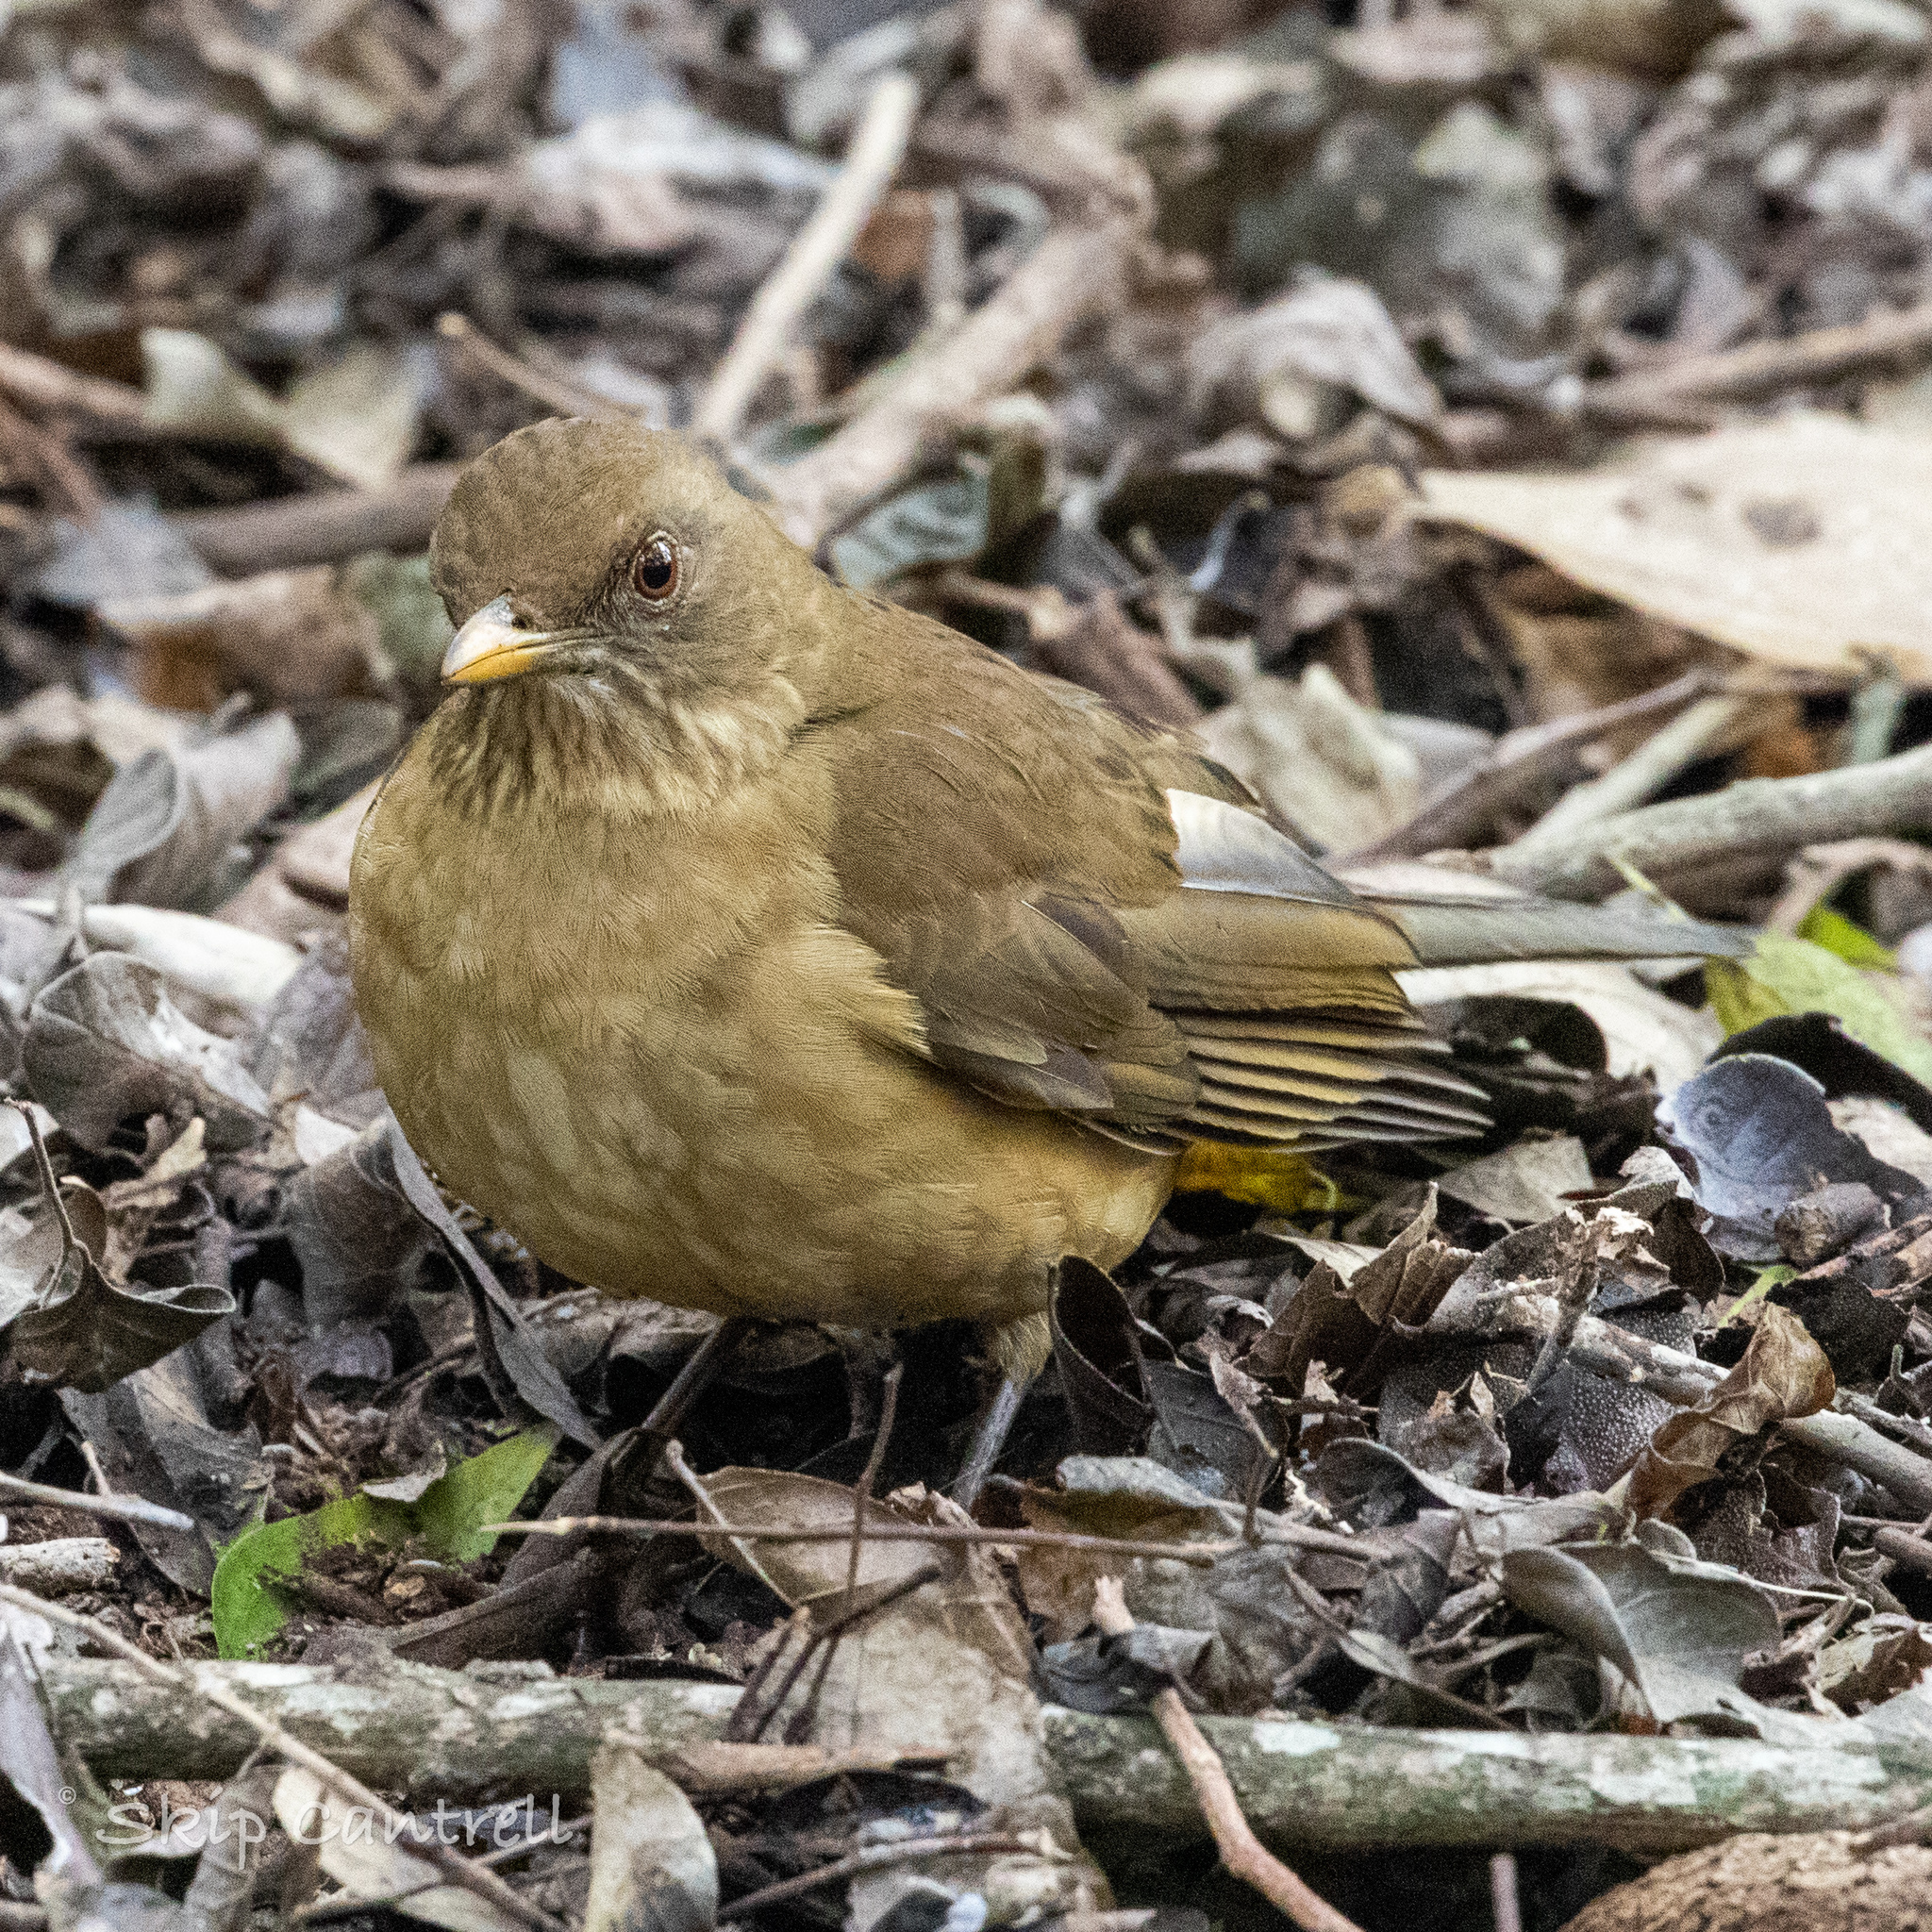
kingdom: Animalia
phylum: Chordata
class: Aves
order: Passeriformes
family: Turdidae
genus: Turdus
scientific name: Turdus grayi
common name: Clay-colored thrush
